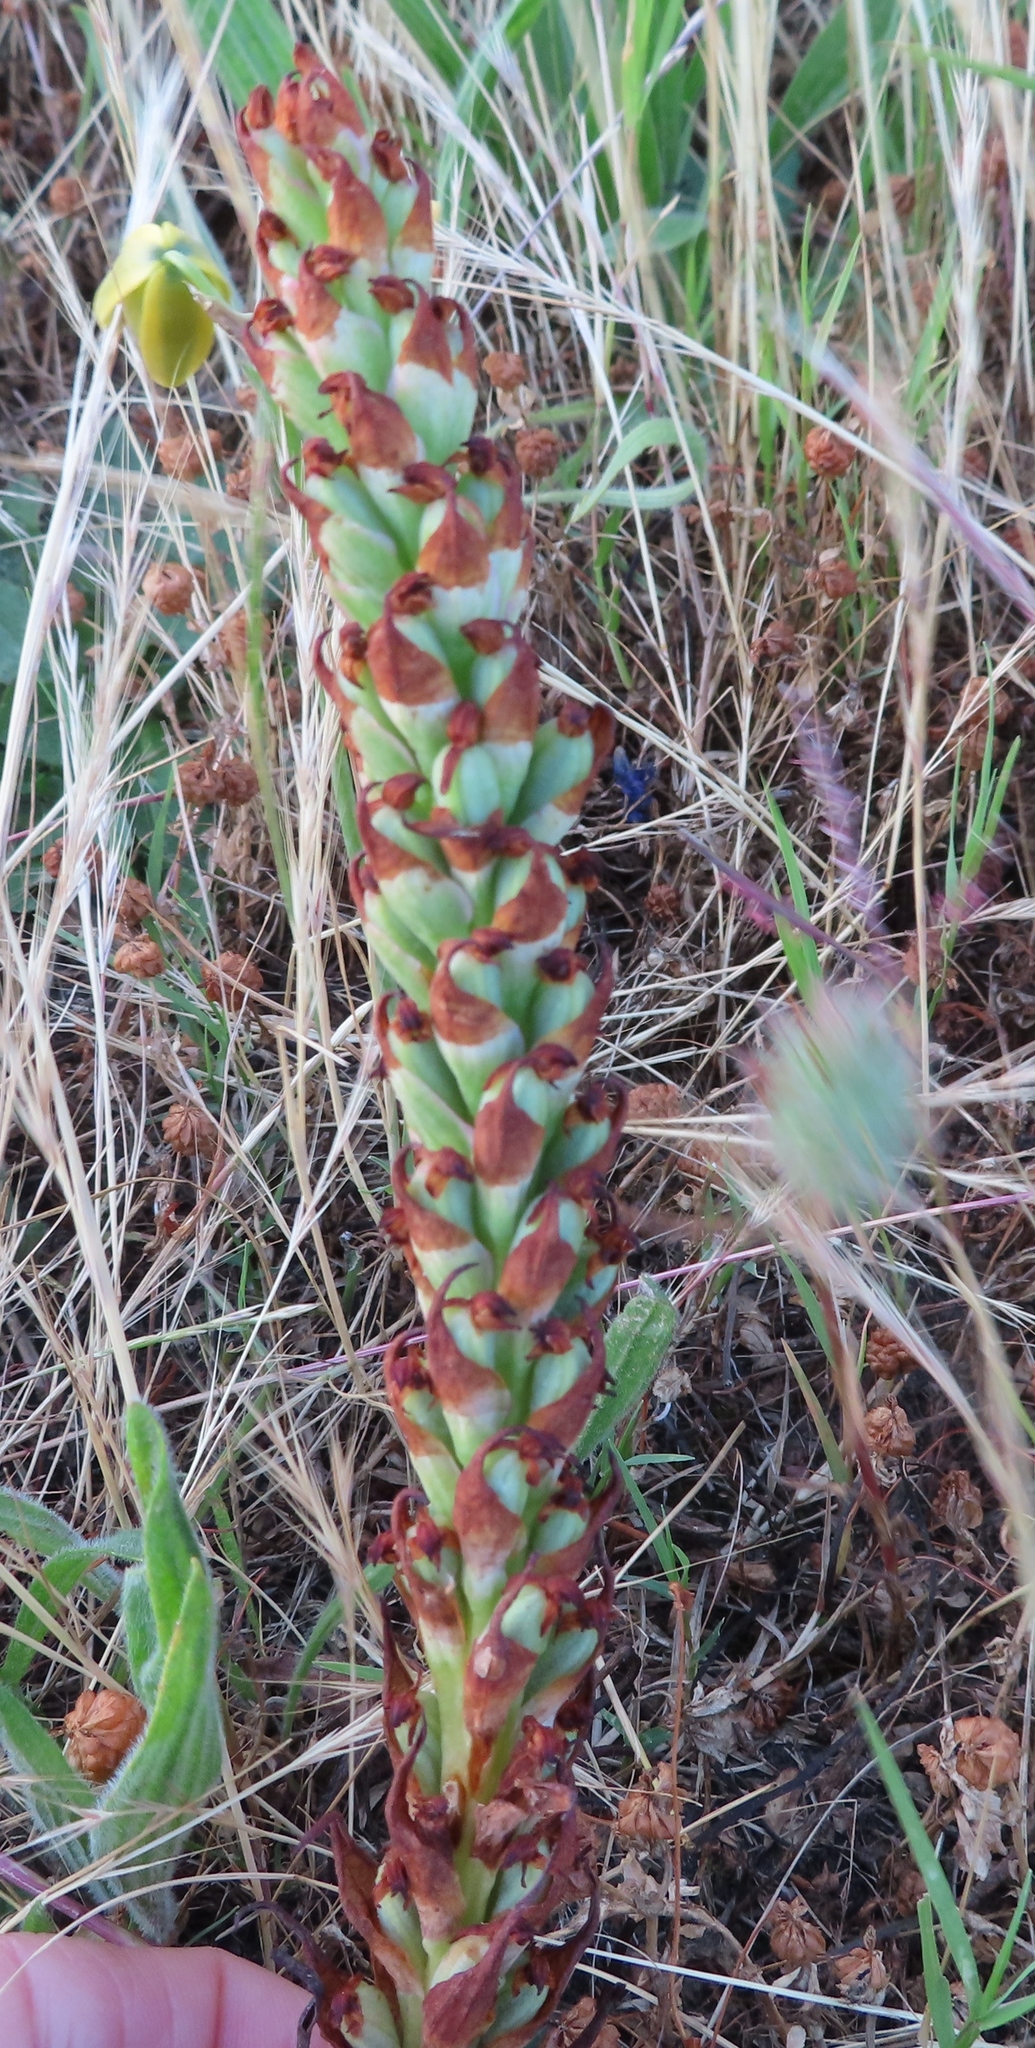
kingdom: Plantae
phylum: Tracheophyta
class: Liliopsida
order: Asparagales
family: Orchidaceae
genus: Disa
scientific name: Disa bracteata
